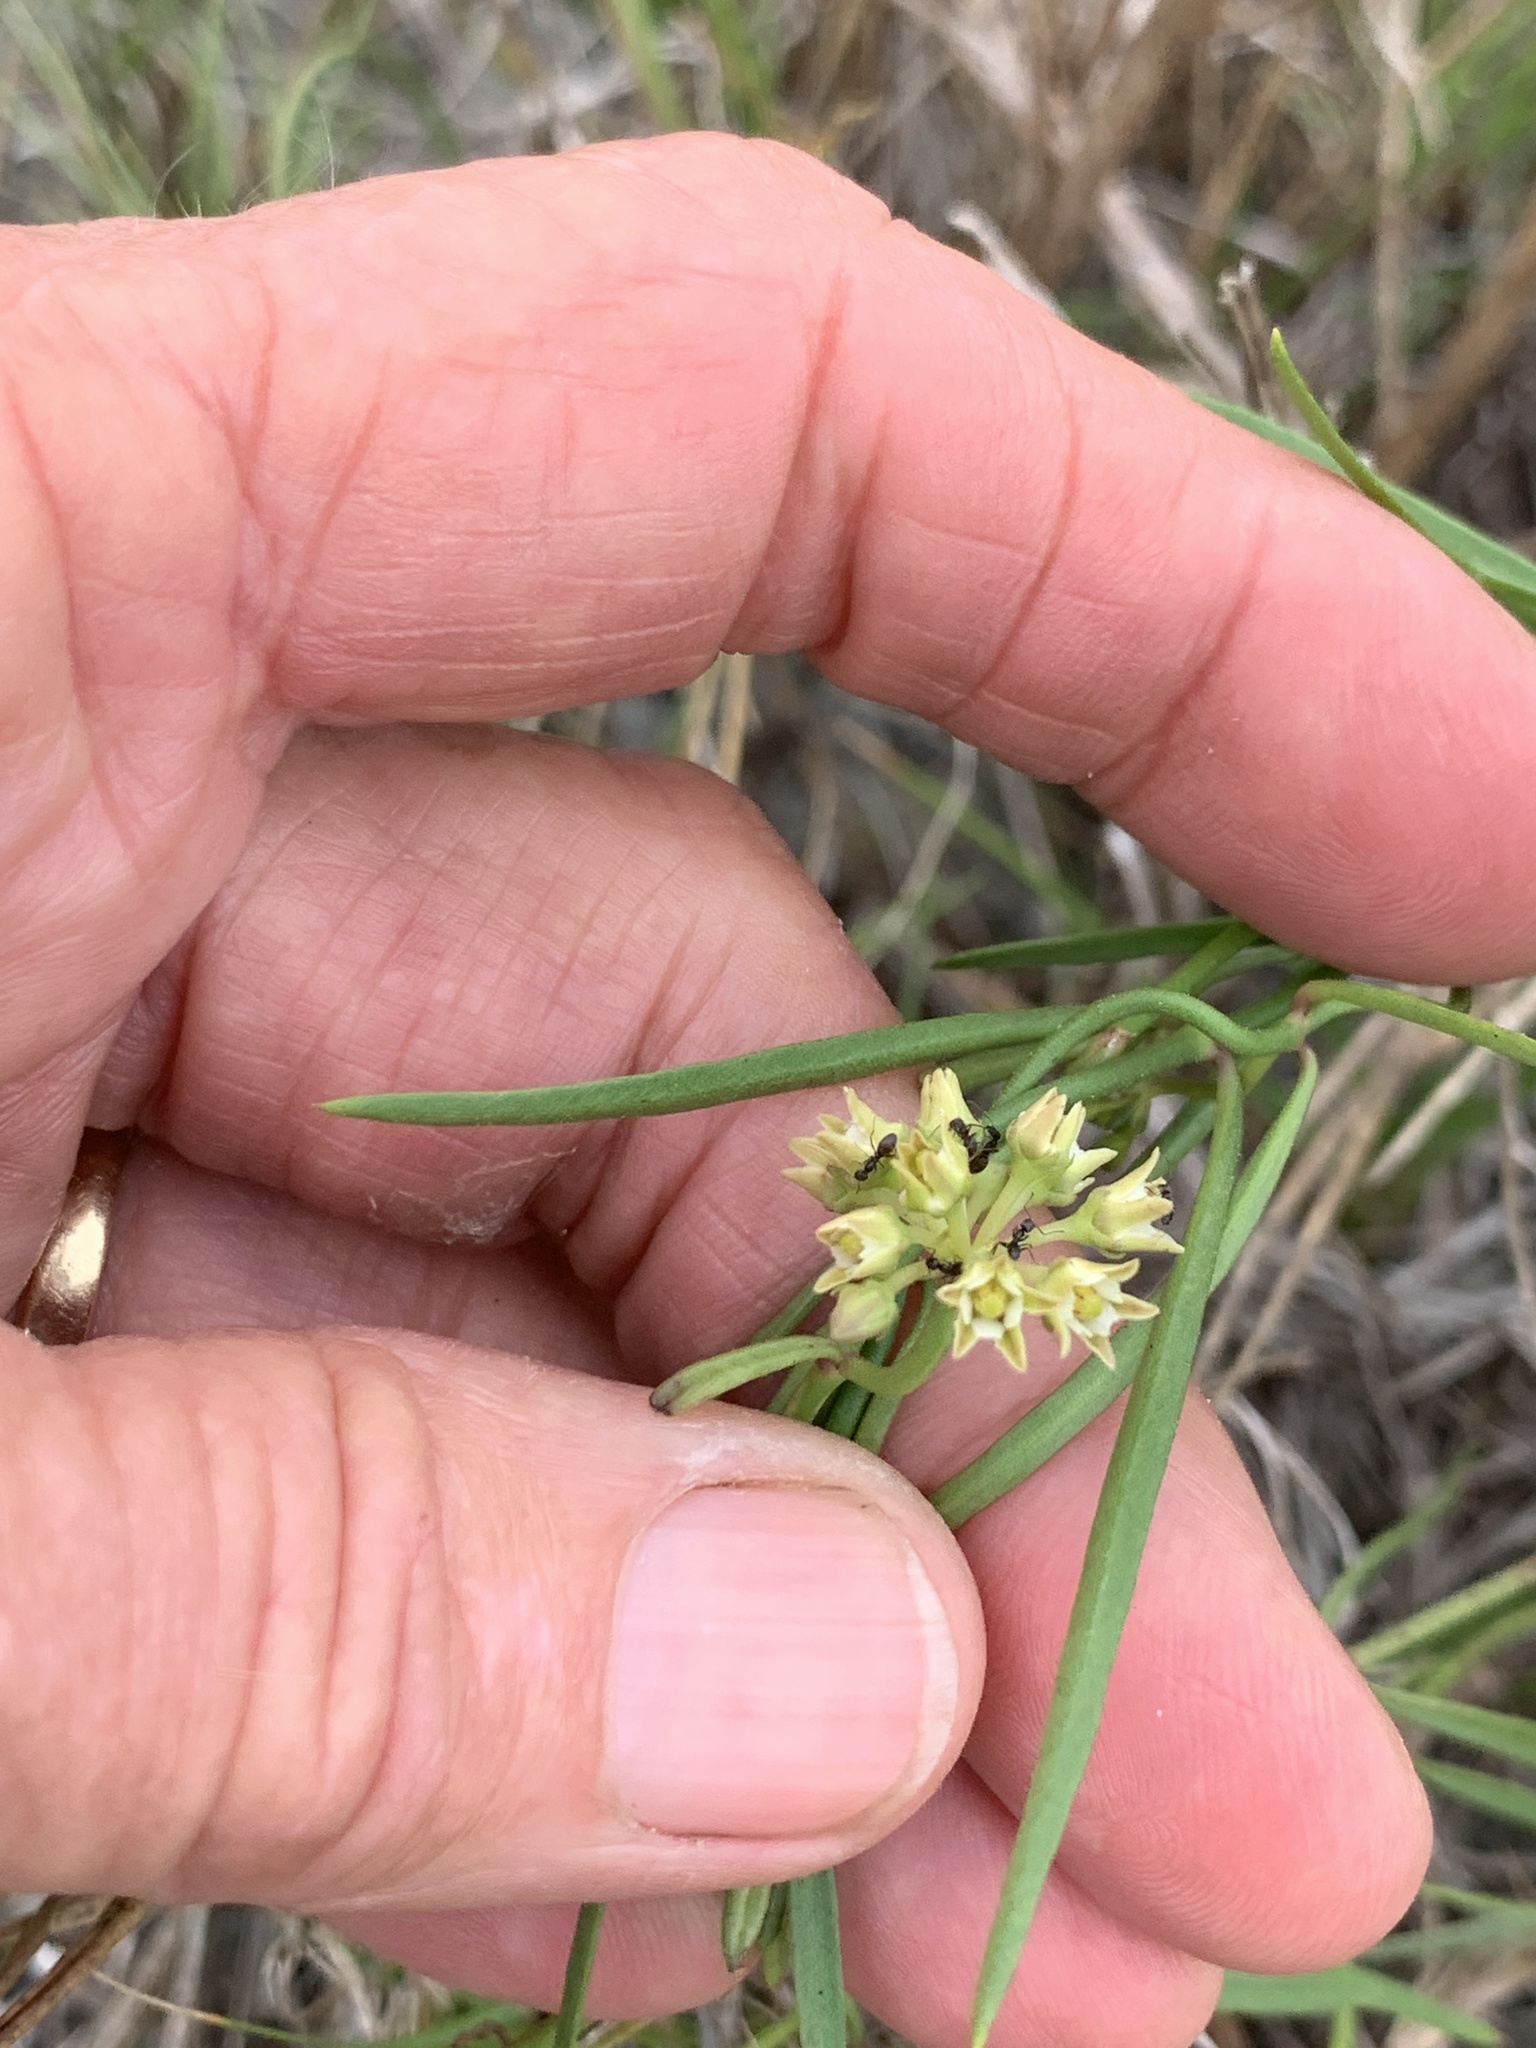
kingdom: Plantae
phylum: Tracheophyta
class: Magnoliopsida
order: Gentianales
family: Apocynaceae
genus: Pattalias
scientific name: Pattalias
